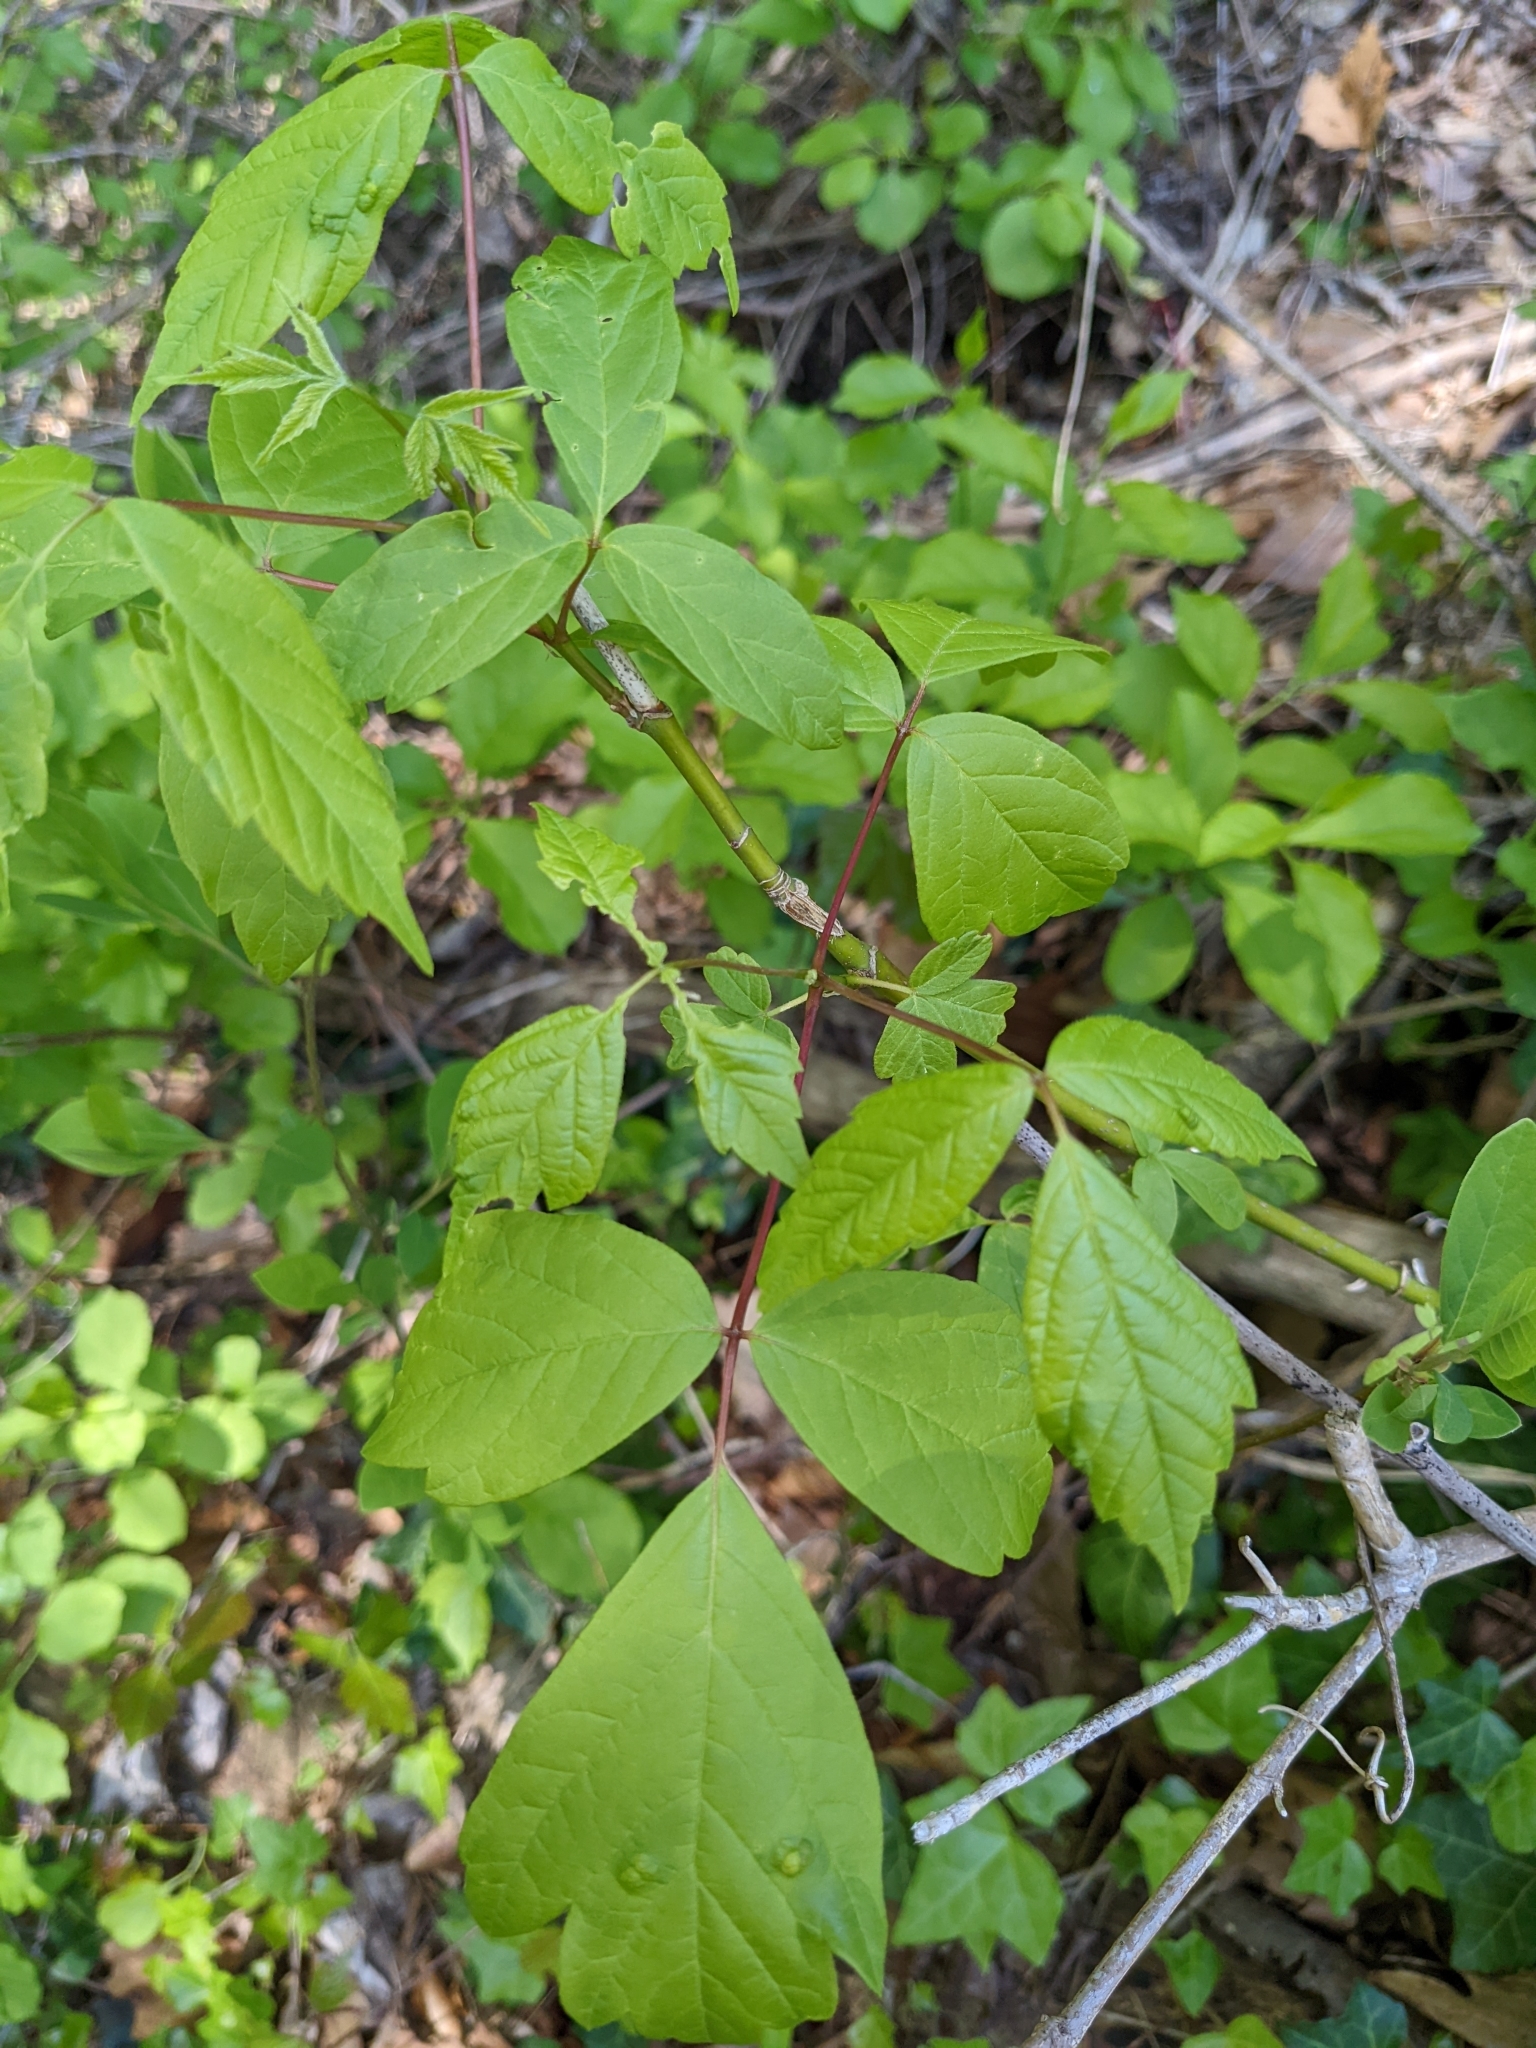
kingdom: Plantae
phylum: Tracheophyta
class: Magnoliopsida
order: Sapindales
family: Sapindaceae
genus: Acer
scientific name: Acer negundo
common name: Ashleaf maple
